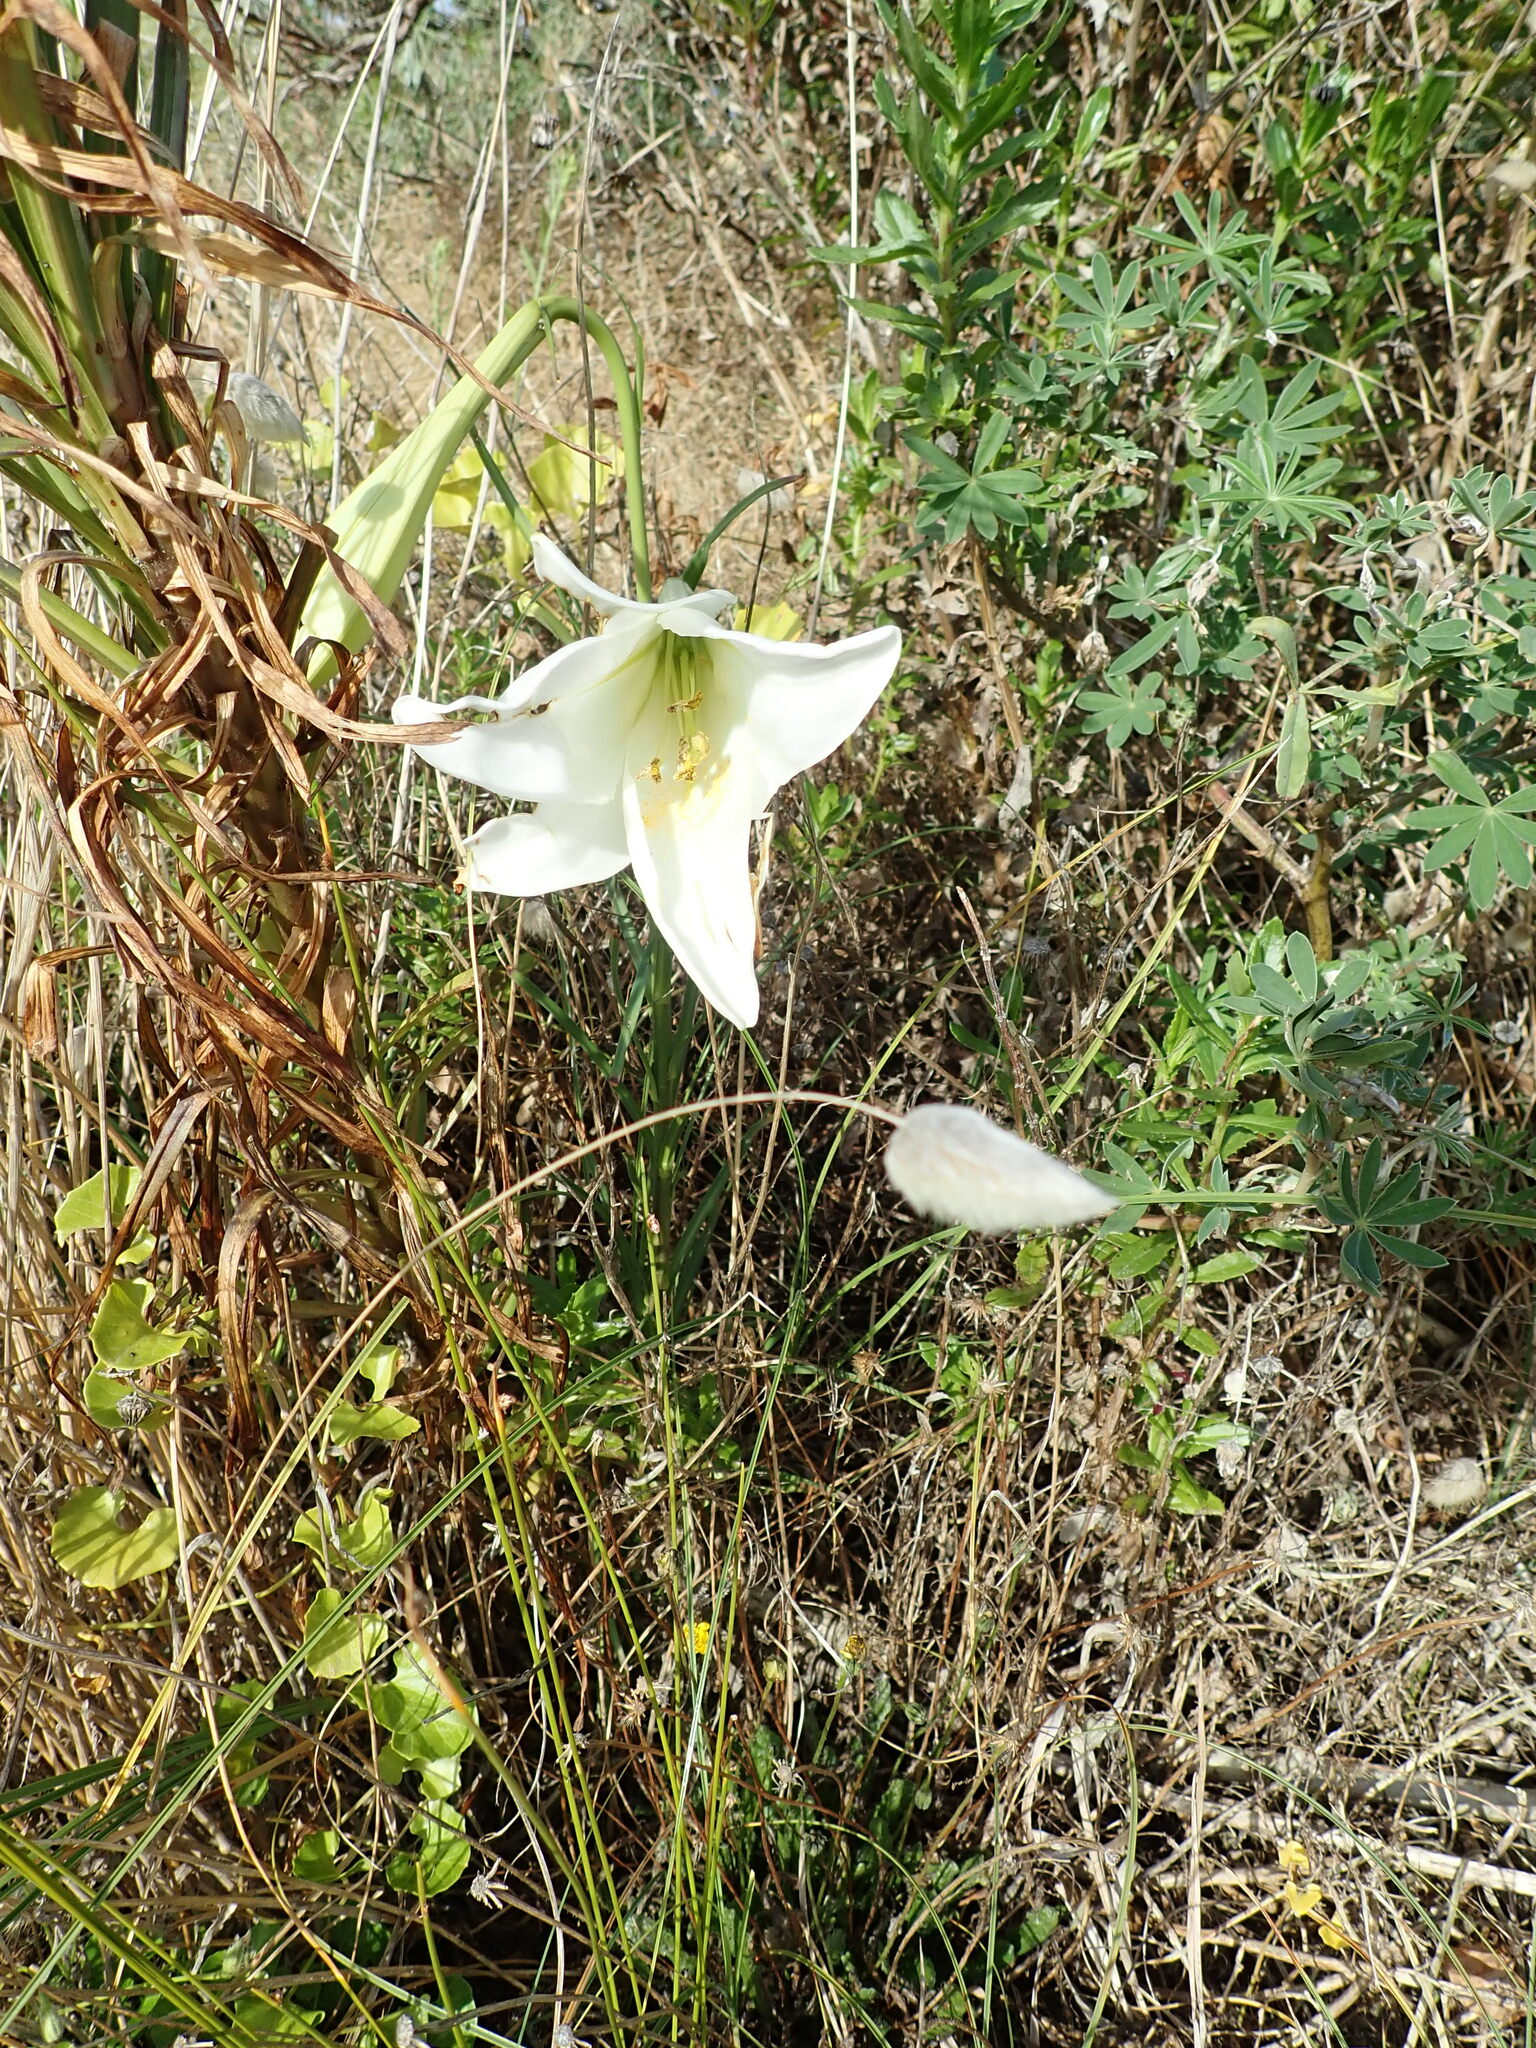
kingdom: Plantae
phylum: Tracheophyta
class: Liliopsida
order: Liliales
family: Liliaceae
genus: Lilium
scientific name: Lilium formosanum
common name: Formosa lily
